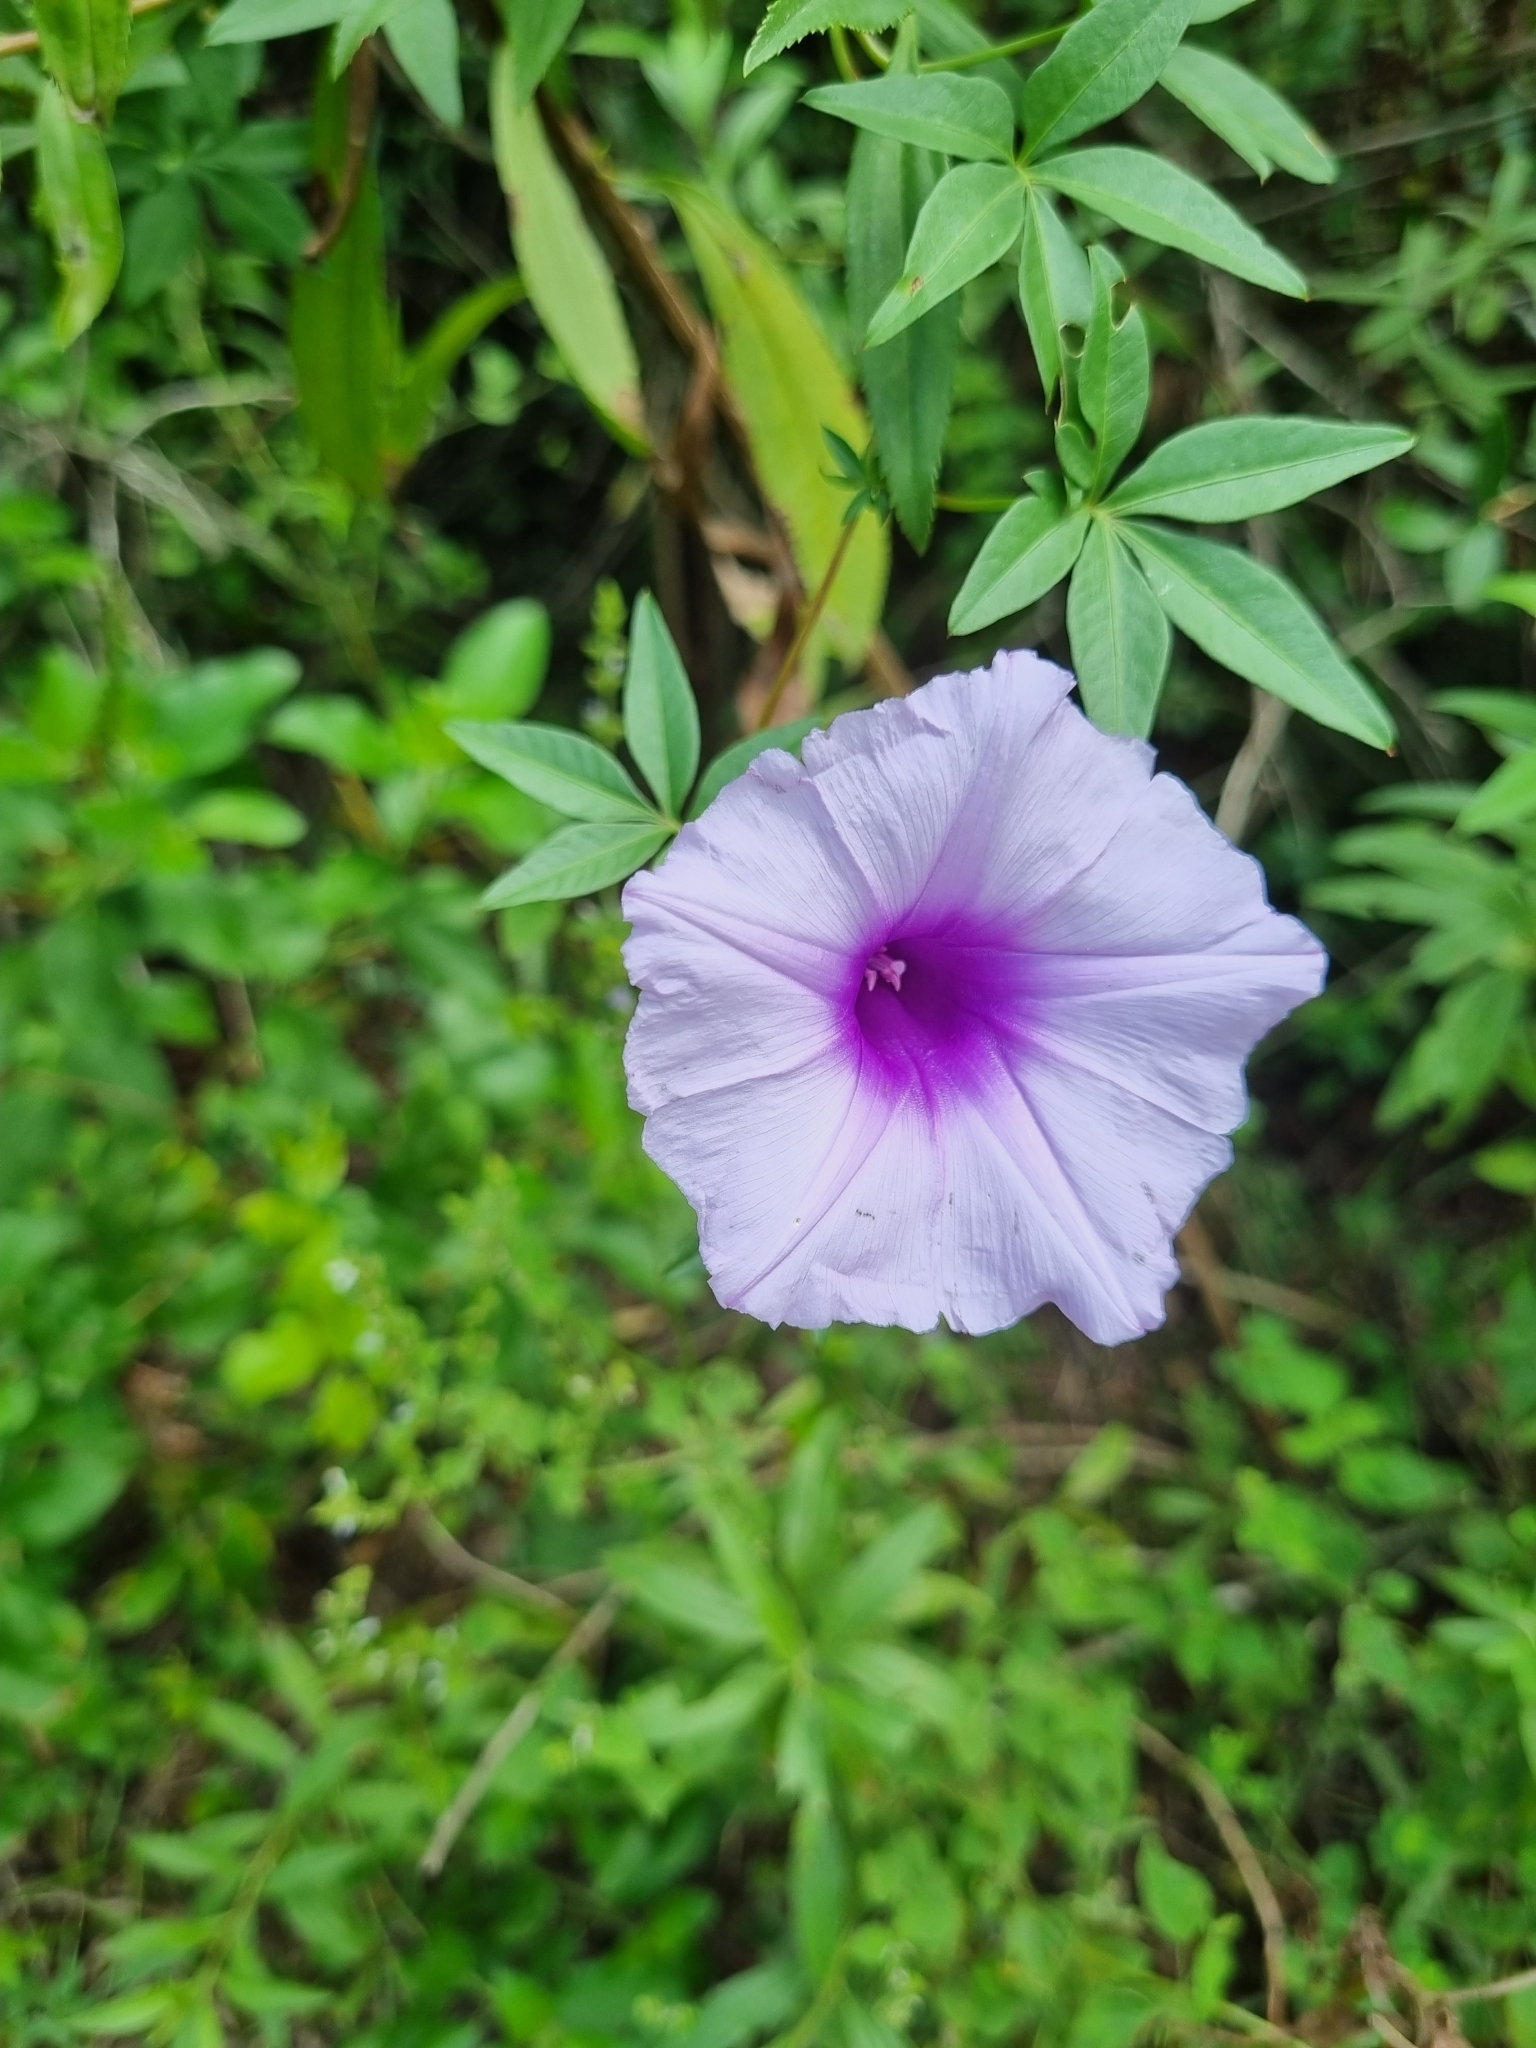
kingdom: Plantae
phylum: Tracheophyta
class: Magnoliopsida
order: Solanales
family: Convolvulaceae
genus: Ipomoea
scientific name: Ipomoea cairica
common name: Mile a minute vine
